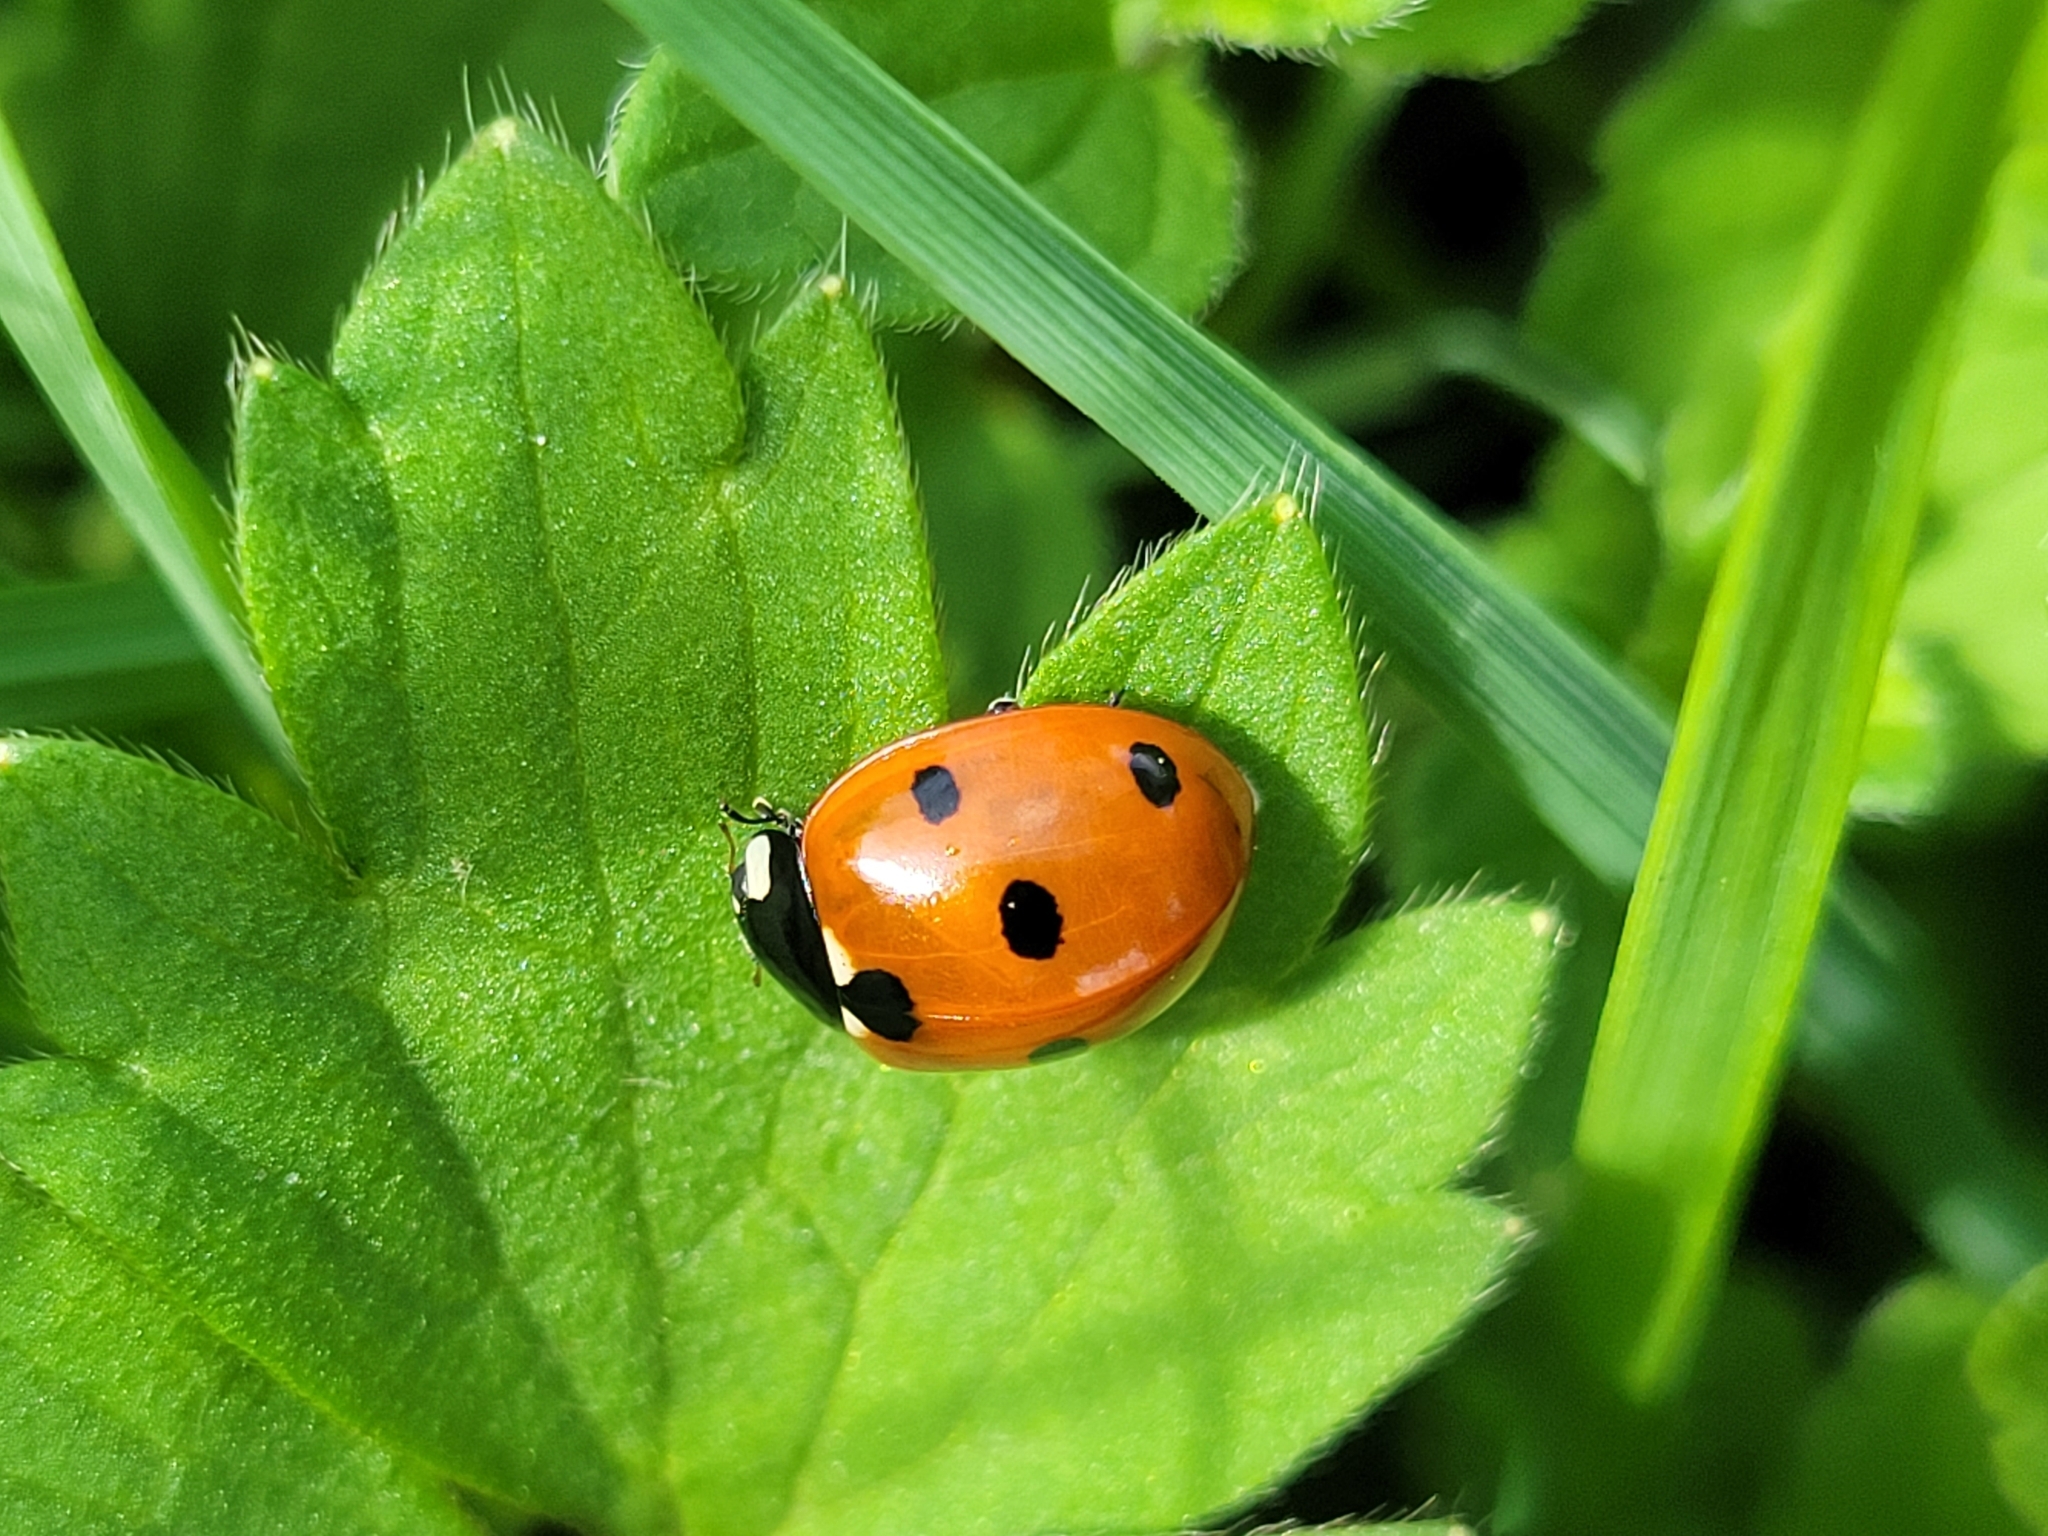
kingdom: Animalia
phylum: Arthropoda
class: Insecta
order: Coleoptera
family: Coccinellidae
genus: Coccinella
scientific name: Coccinella septempunctata
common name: Sevenspotted lady beetle
